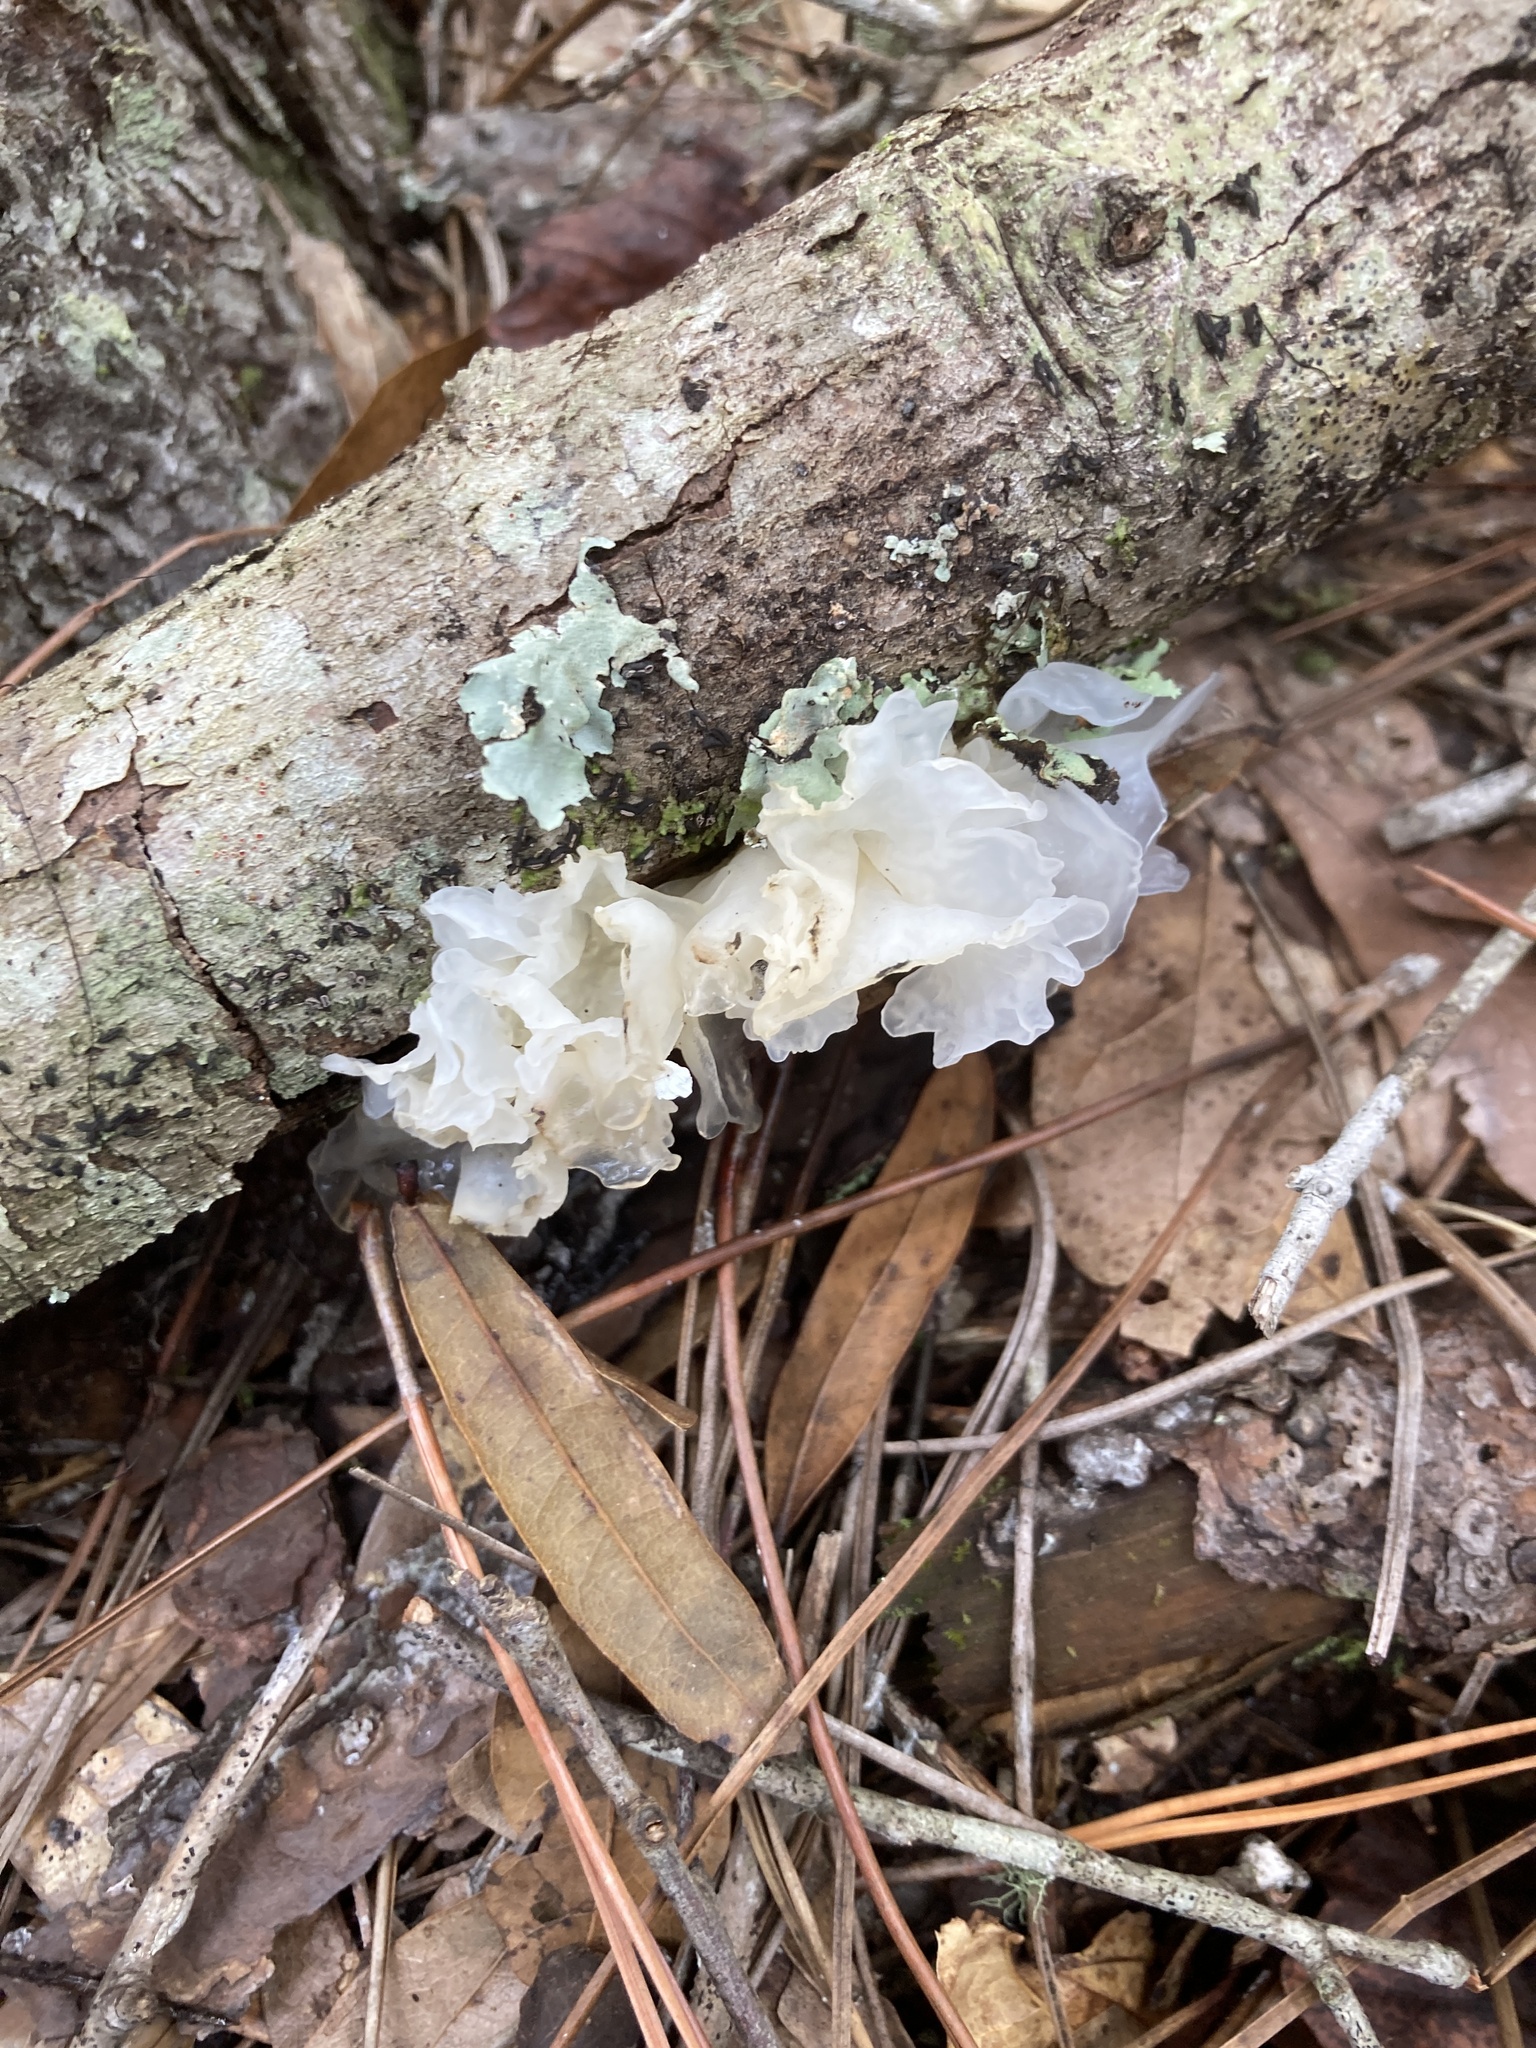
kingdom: Fungi
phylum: Basidiomycota
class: Tremellomycetes
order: Tremellales
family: Tremellaceae
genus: Tremella
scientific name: Tremella fuciformis
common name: Snow fungus
